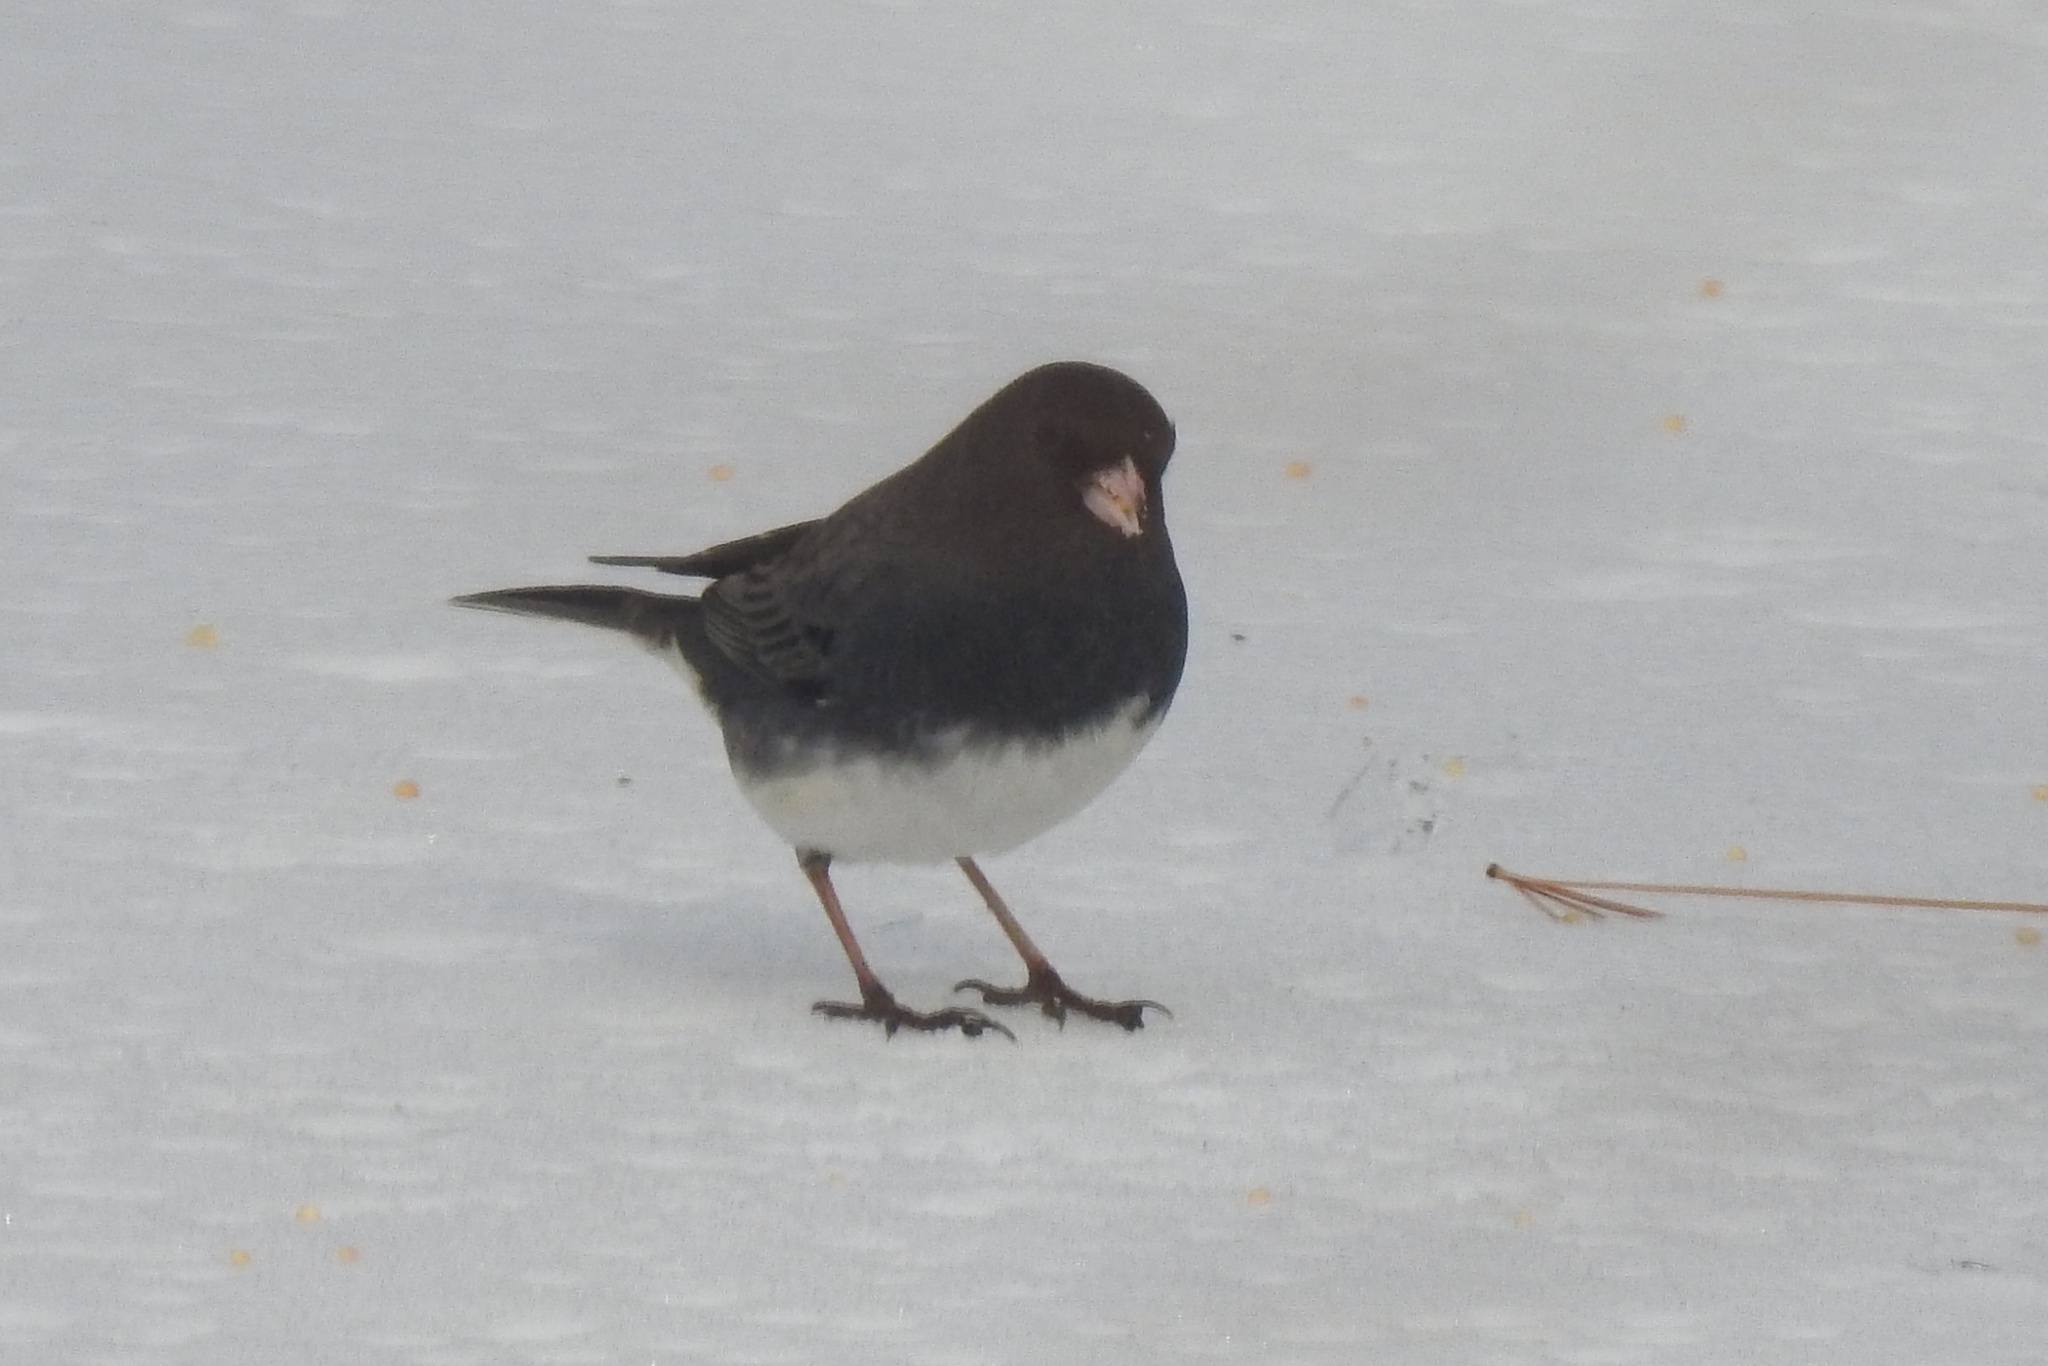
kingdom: Animalia
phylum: Chordata
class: Aves
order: Passeriformes
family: Passerellidae
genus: Junco
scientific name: Junco hyemalis
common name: Dark-eyed junco
